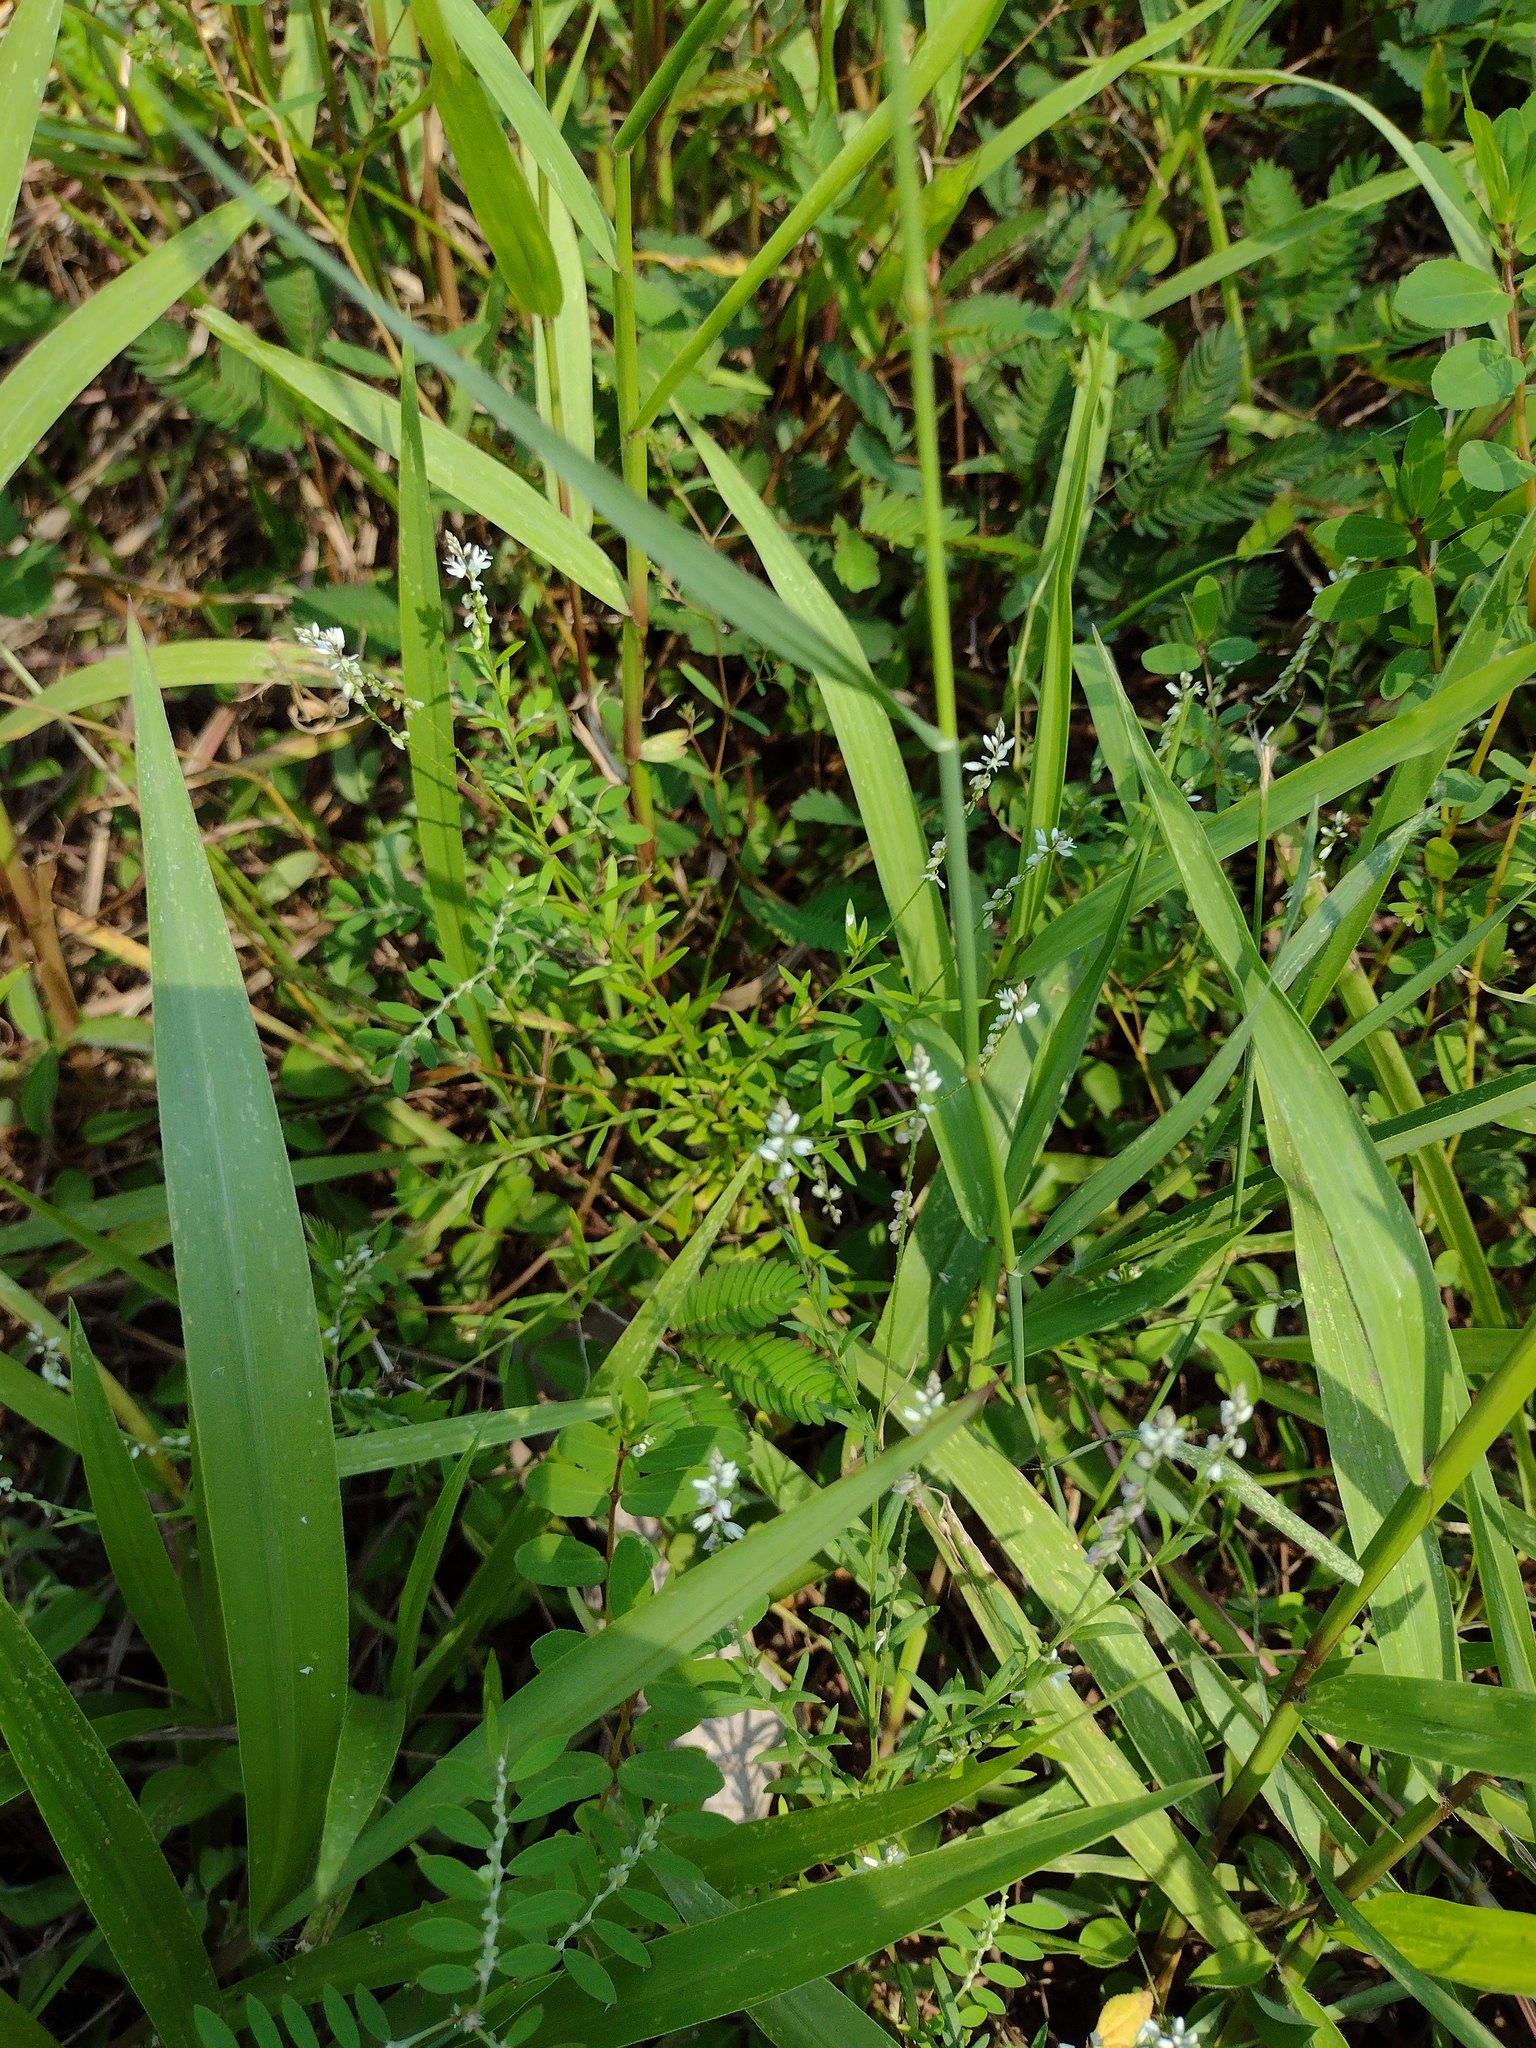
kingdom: Plantae
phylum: Tracheophyta
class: Magnoliopsida
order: Fabales
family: Polygalaceae
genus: Polygala
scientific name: Polygala paniculata
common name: Orosne
